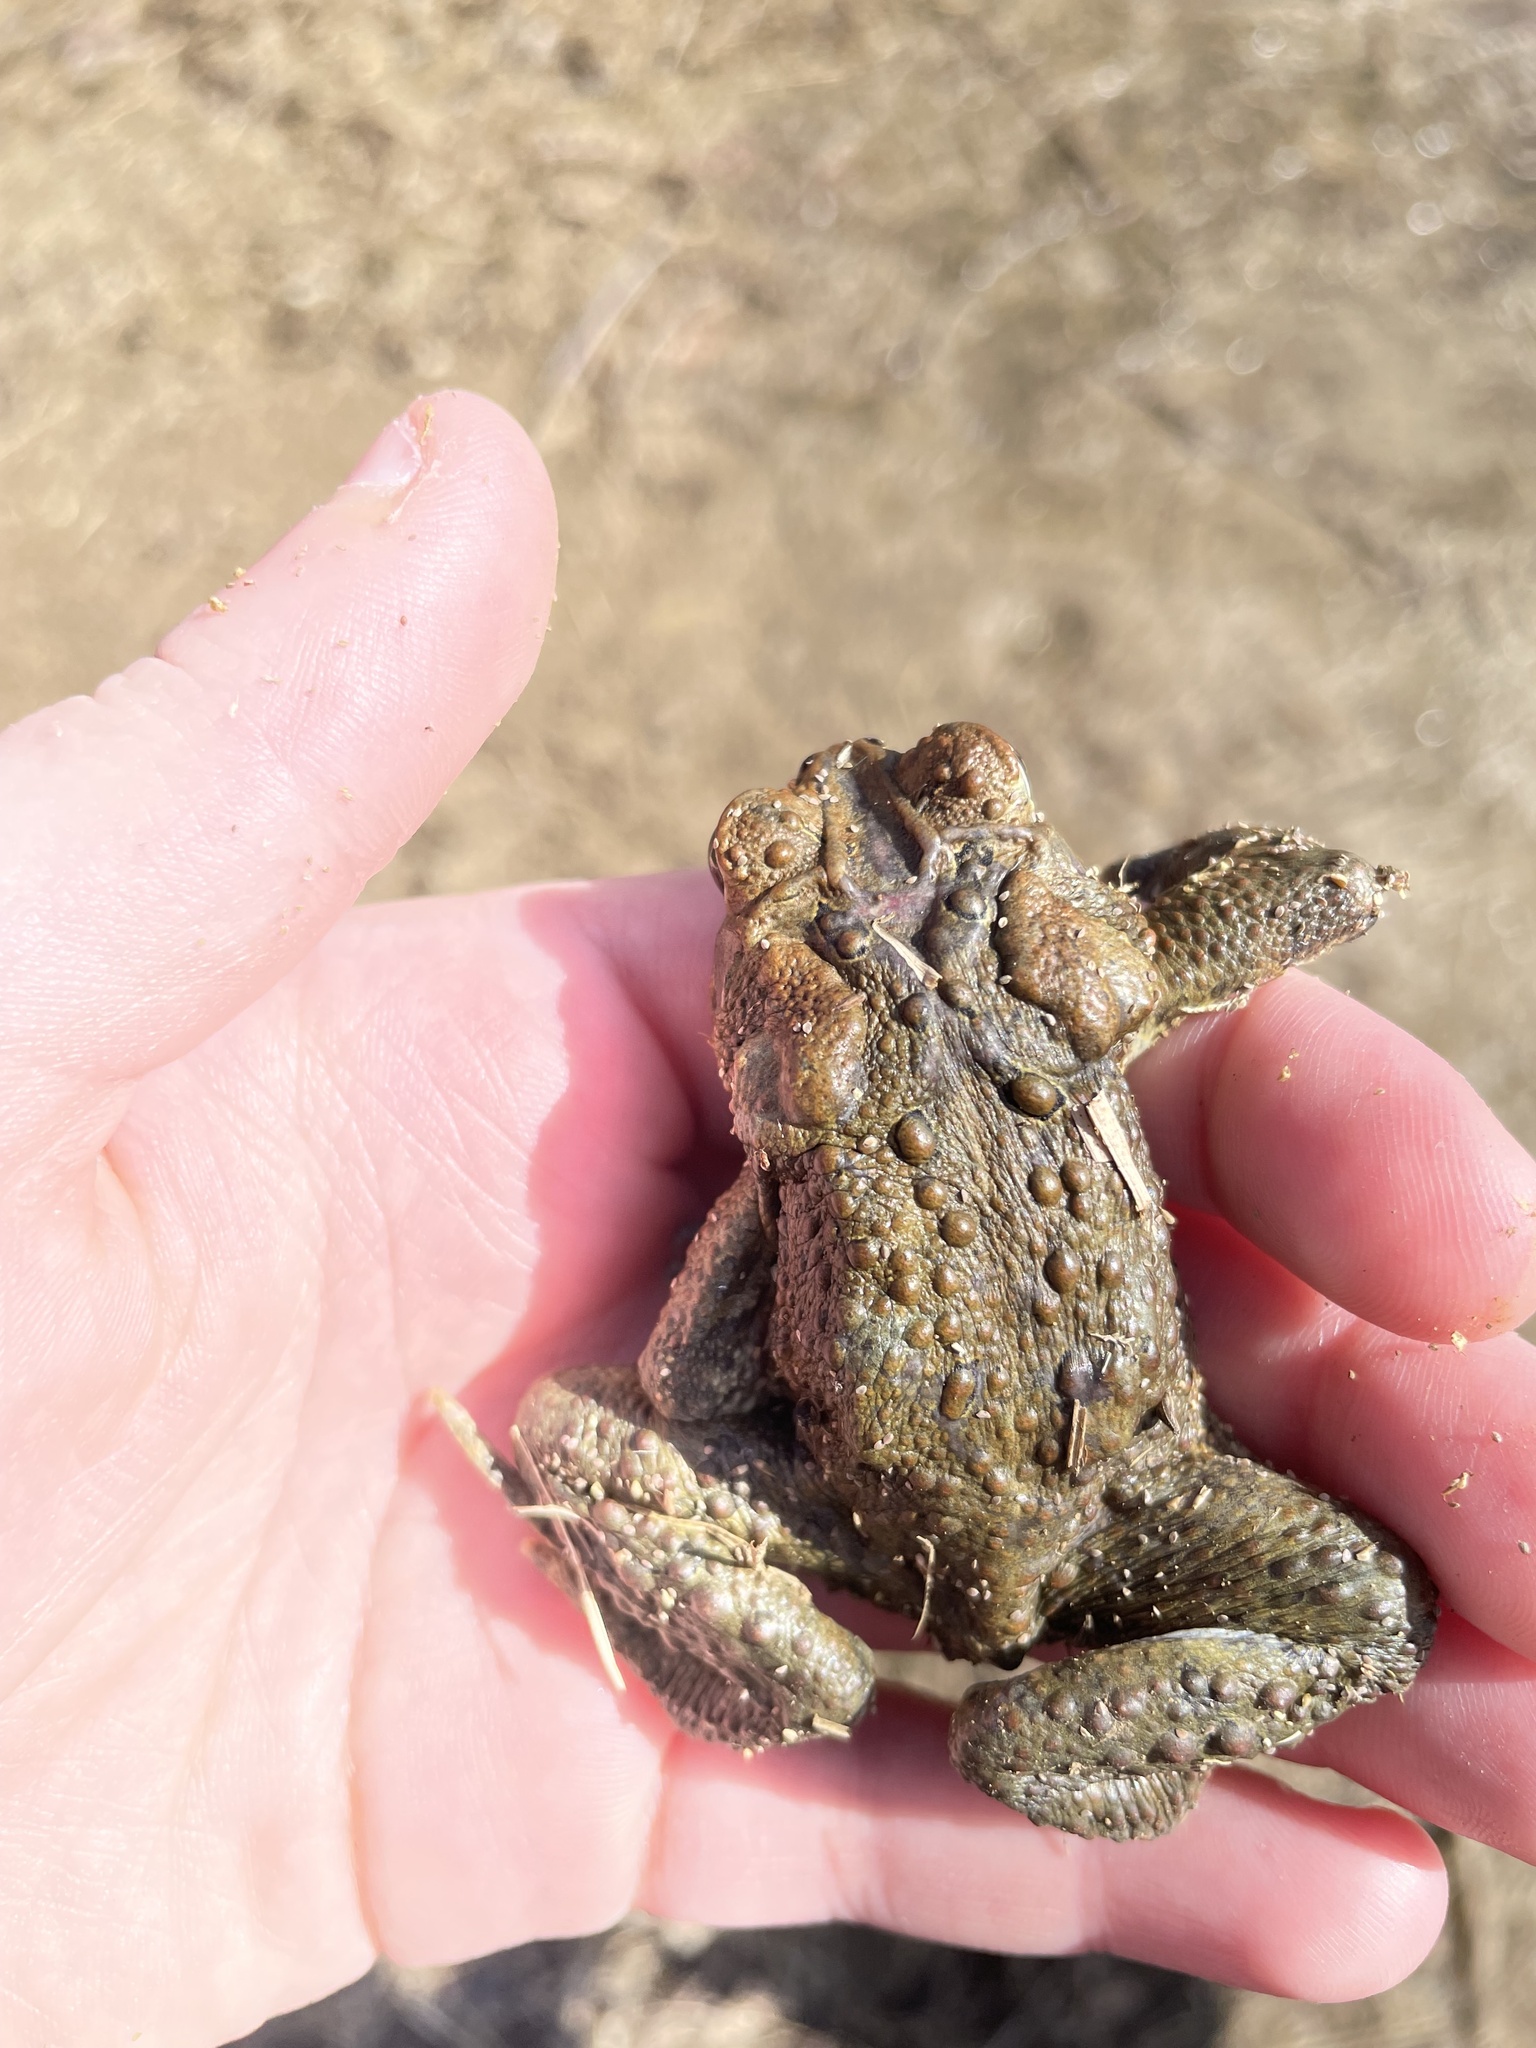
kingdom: Animalia
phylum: Chordata
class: Amphibia
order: Anura
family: Bufonidae
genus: Anaxyrus
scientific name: Anaxyrus americanus
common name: American toad
